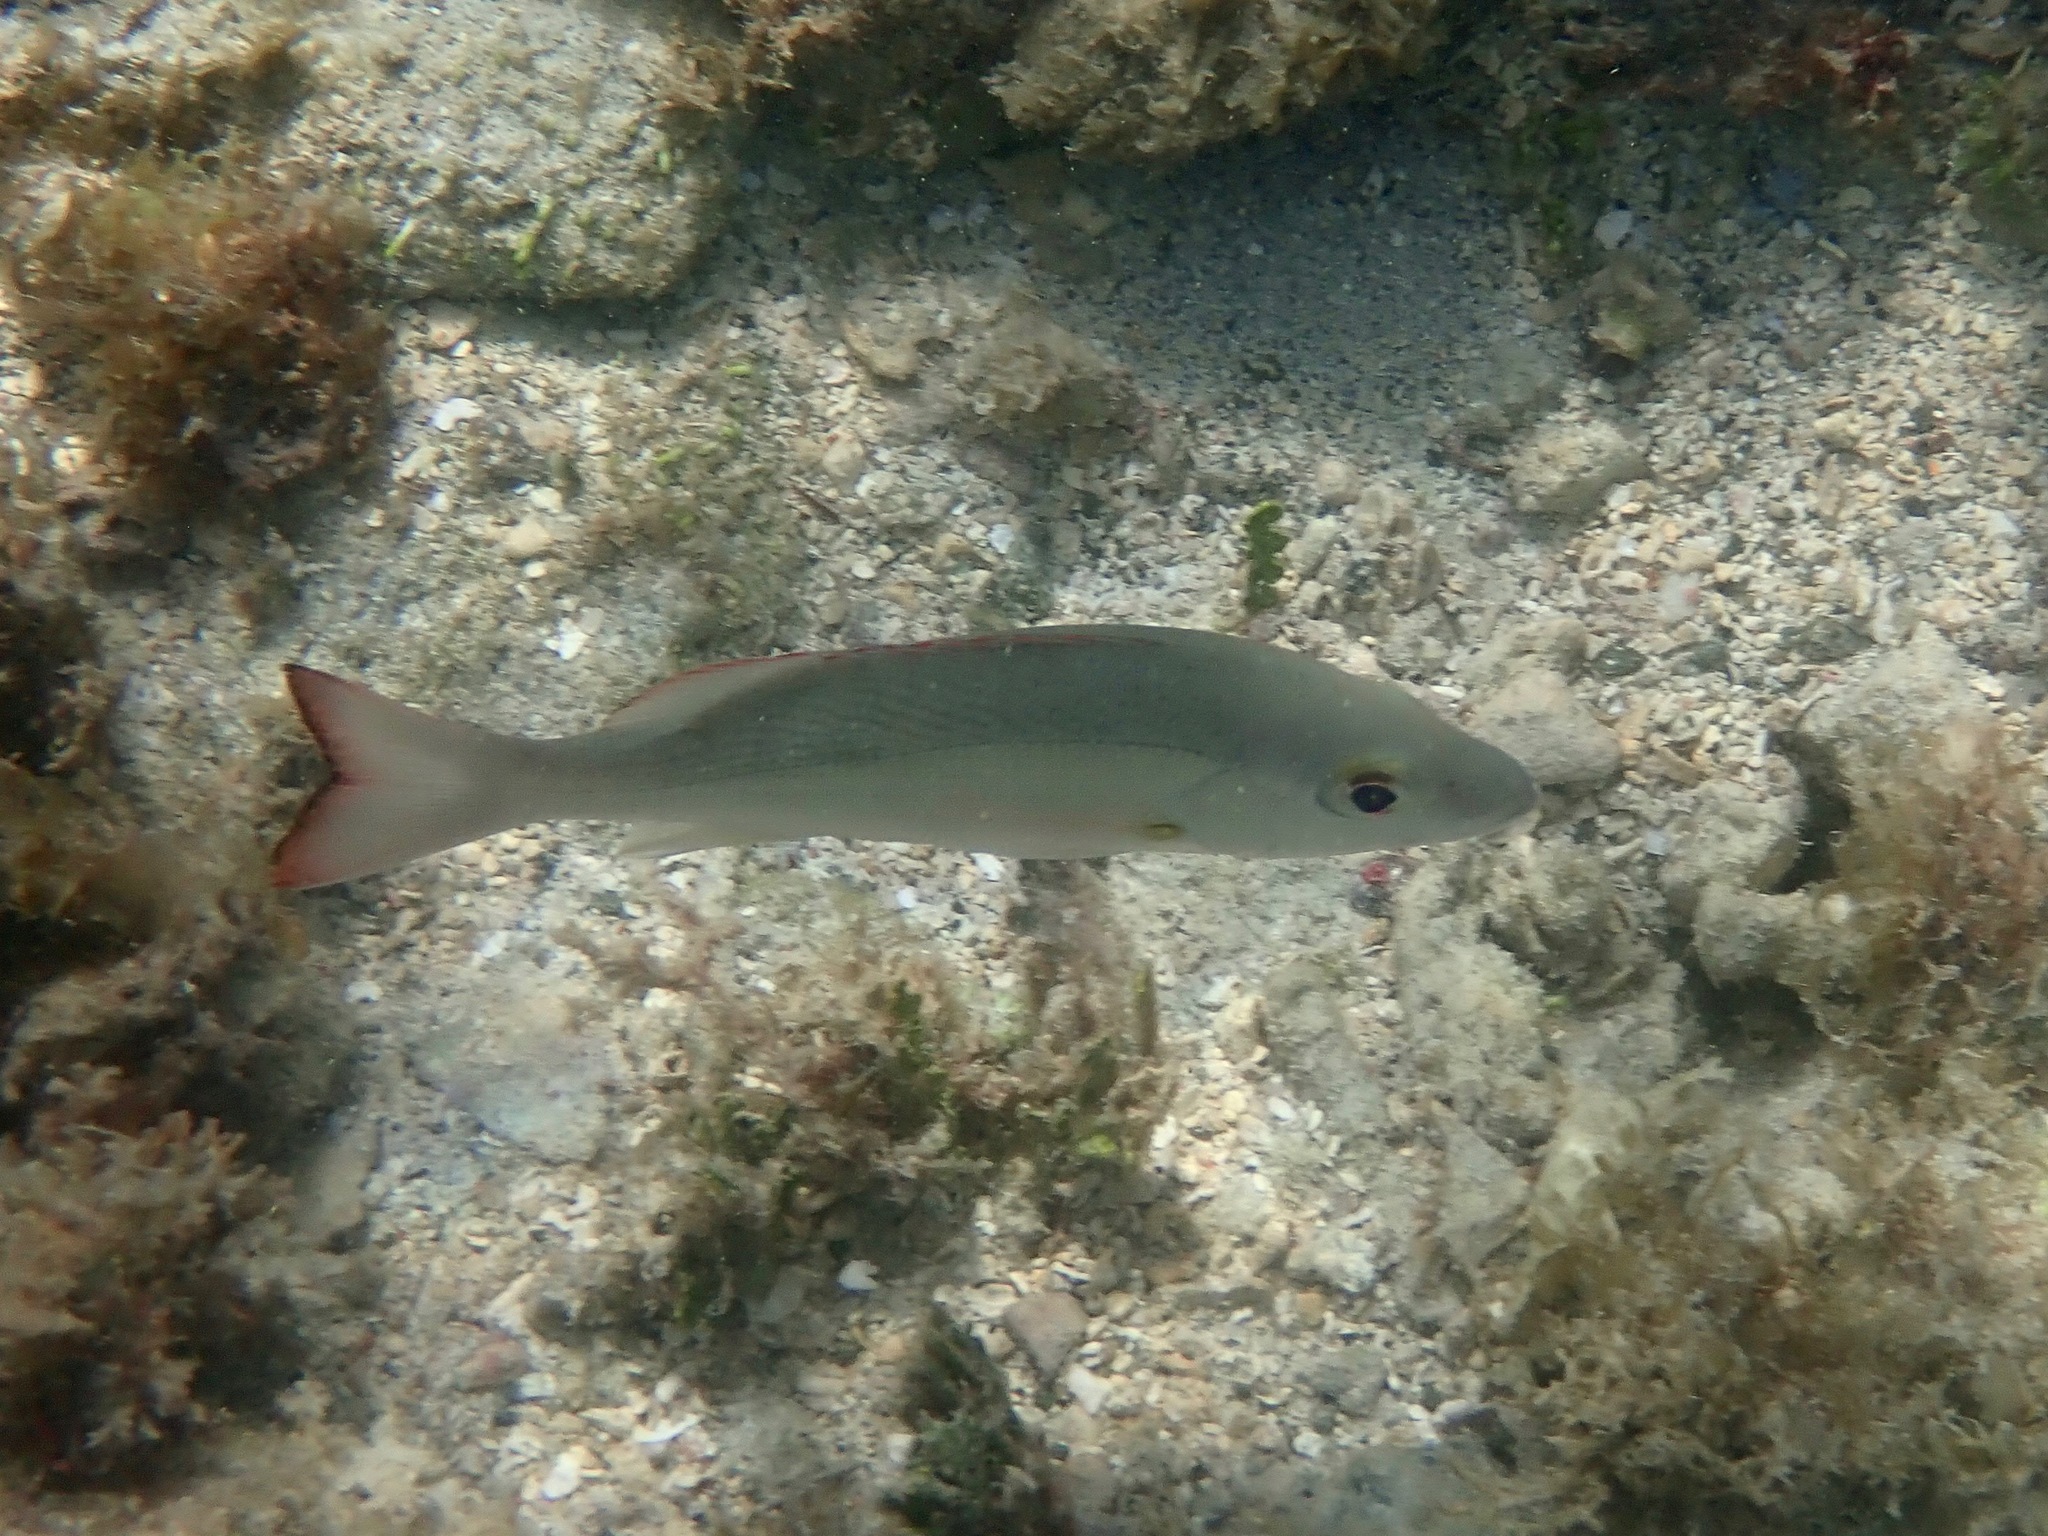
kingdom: Animalia
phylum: Chordata
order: Perciformes
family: Lutjanidae
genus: Lutjanus
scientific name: Lutjanus mahogoni
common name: Spot snapper
